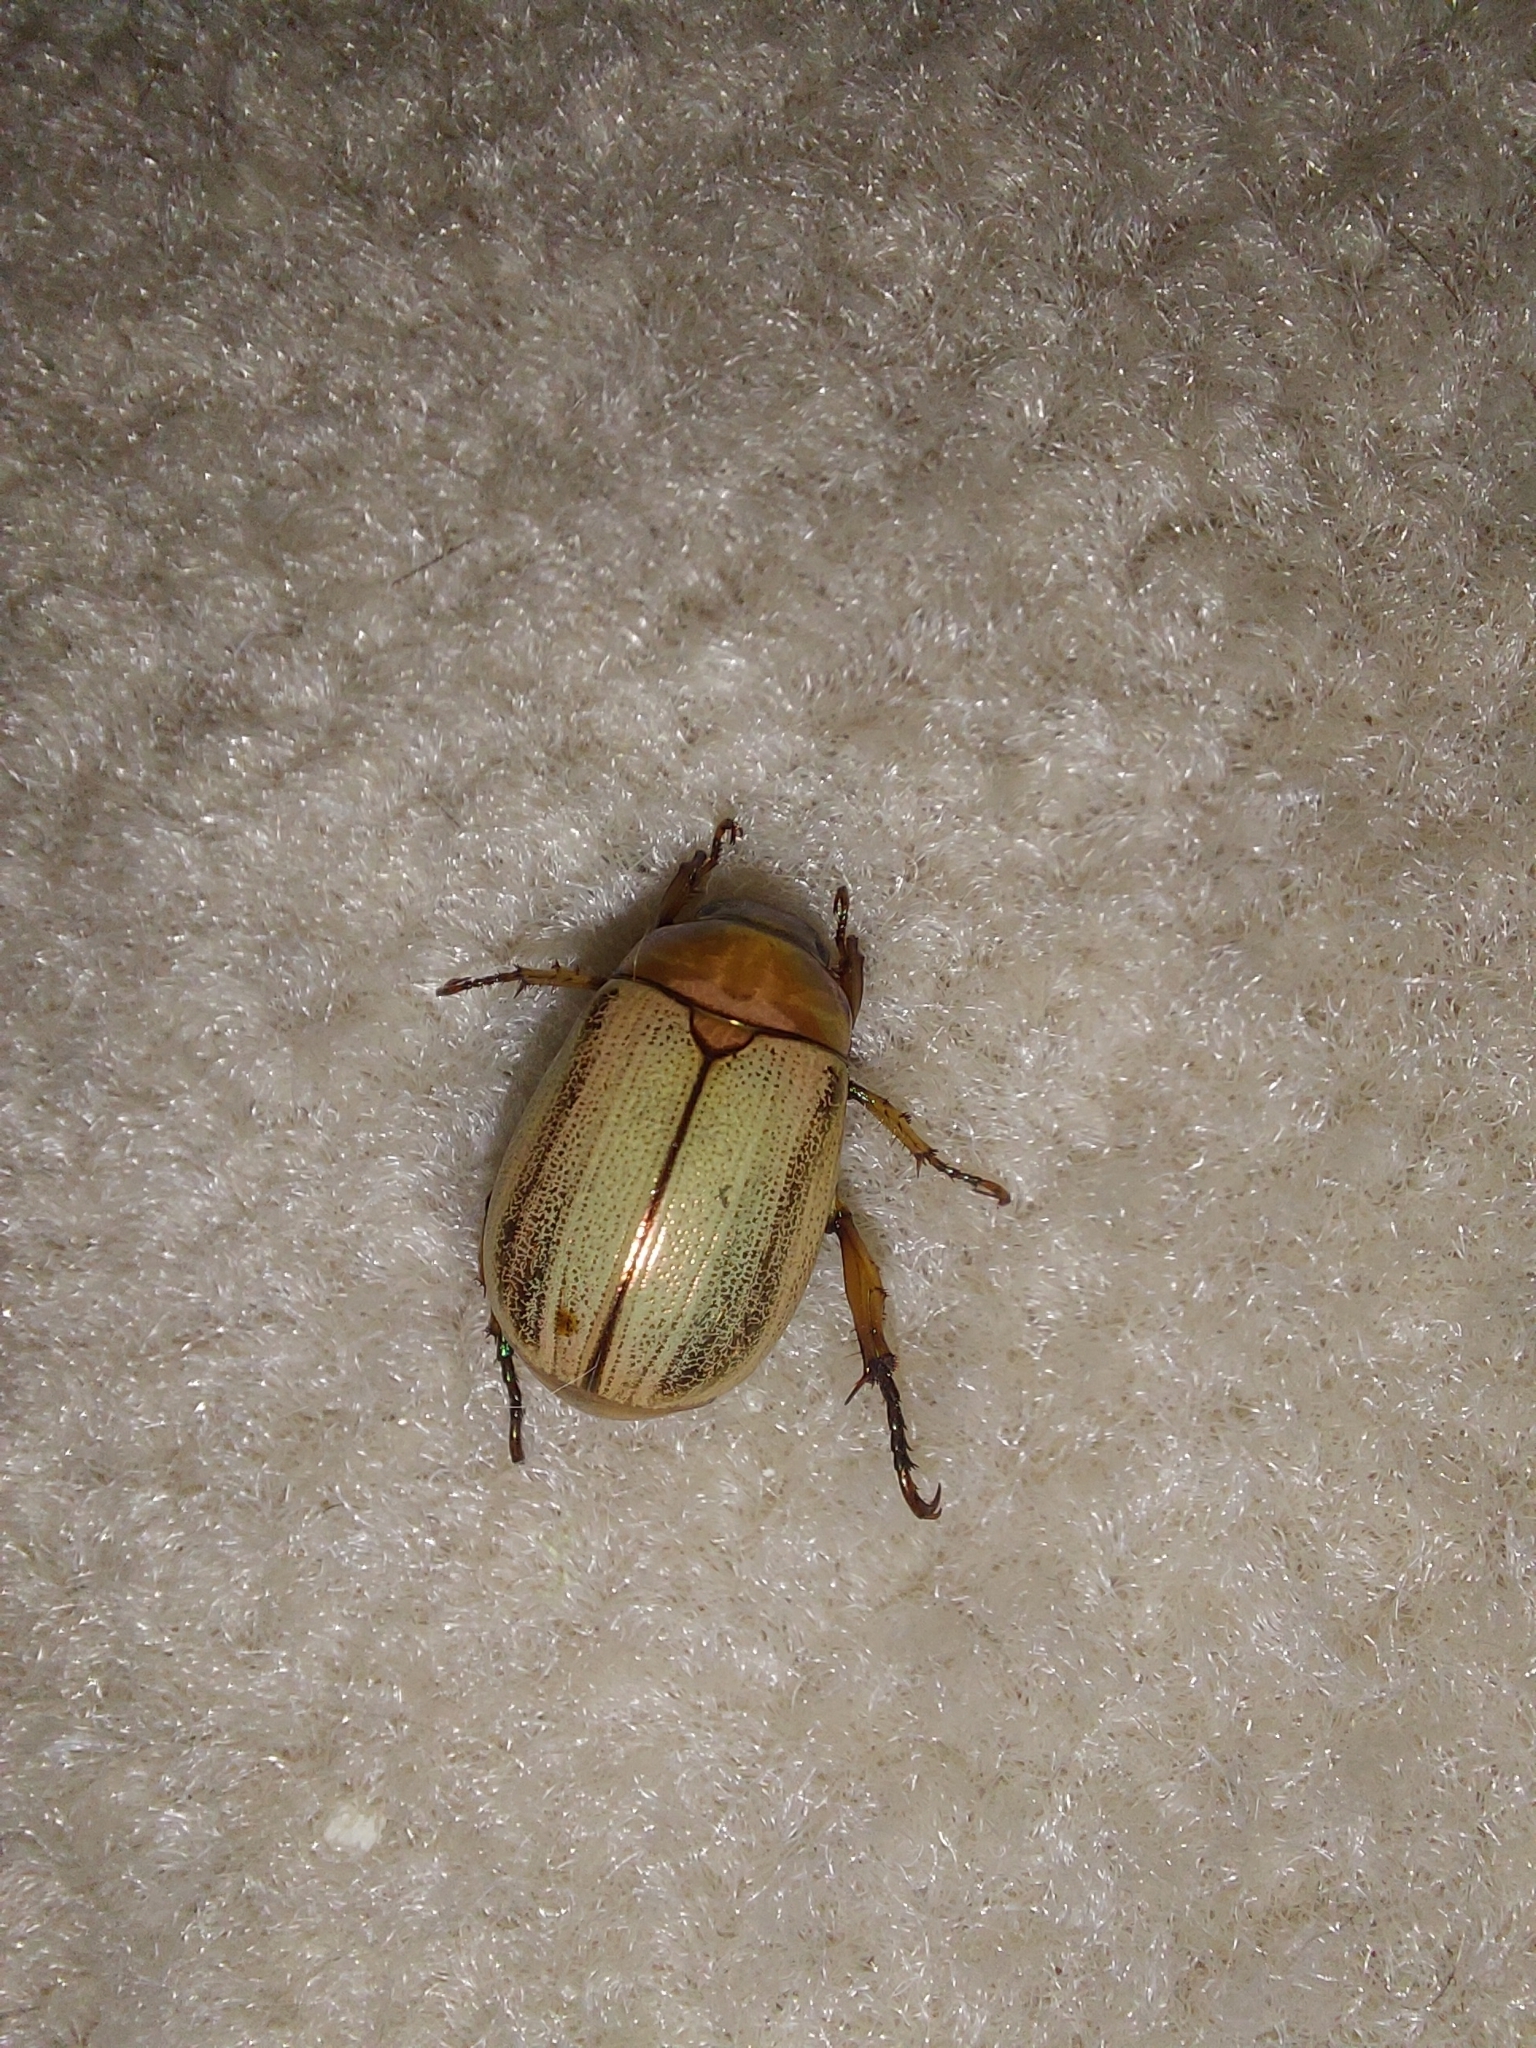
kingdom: Animalia
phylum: Arthropoda
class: Insecta
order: Coleoptera
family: Scarabaeidae
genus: Mimela
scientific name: Mimela testaceoviridis
